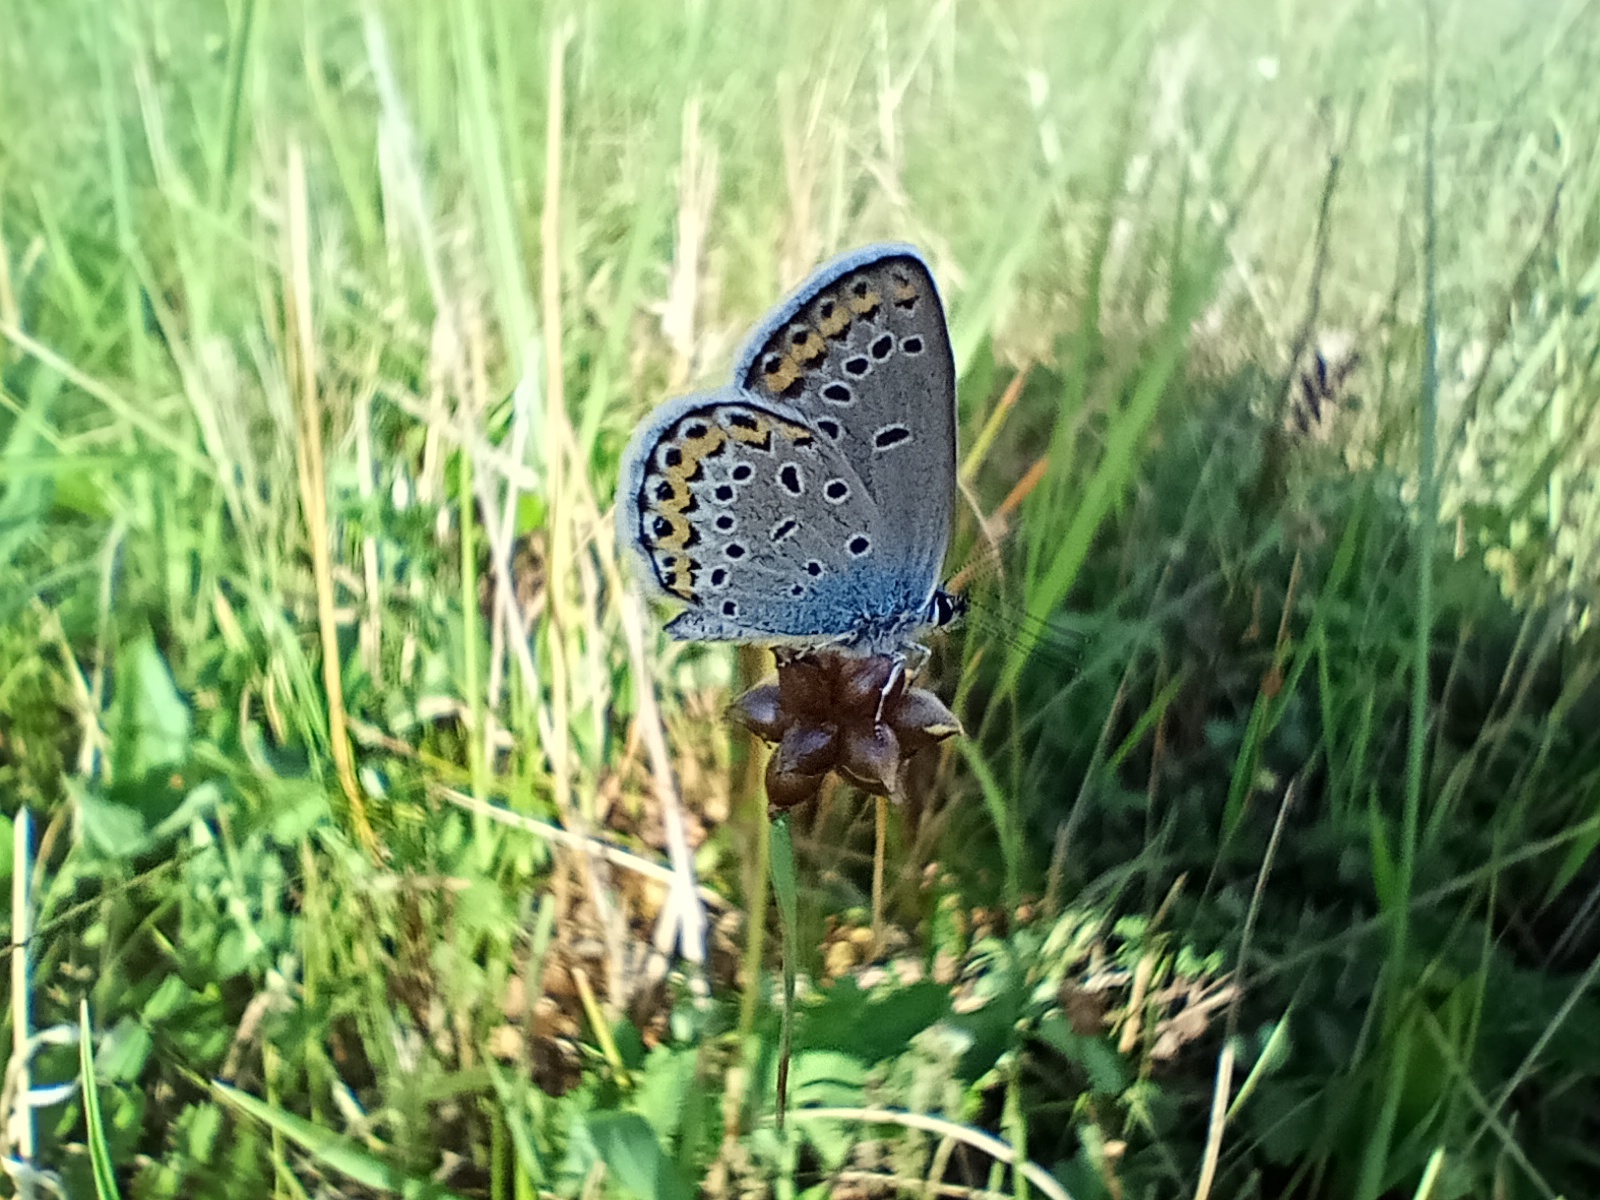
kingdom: Animalia
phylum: Arthropoda
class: Insecta
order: Lepidoptera
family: Lycaenidae
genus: Plebejus
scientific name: Plebejus argyrognomon
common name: Reverdin's blue
